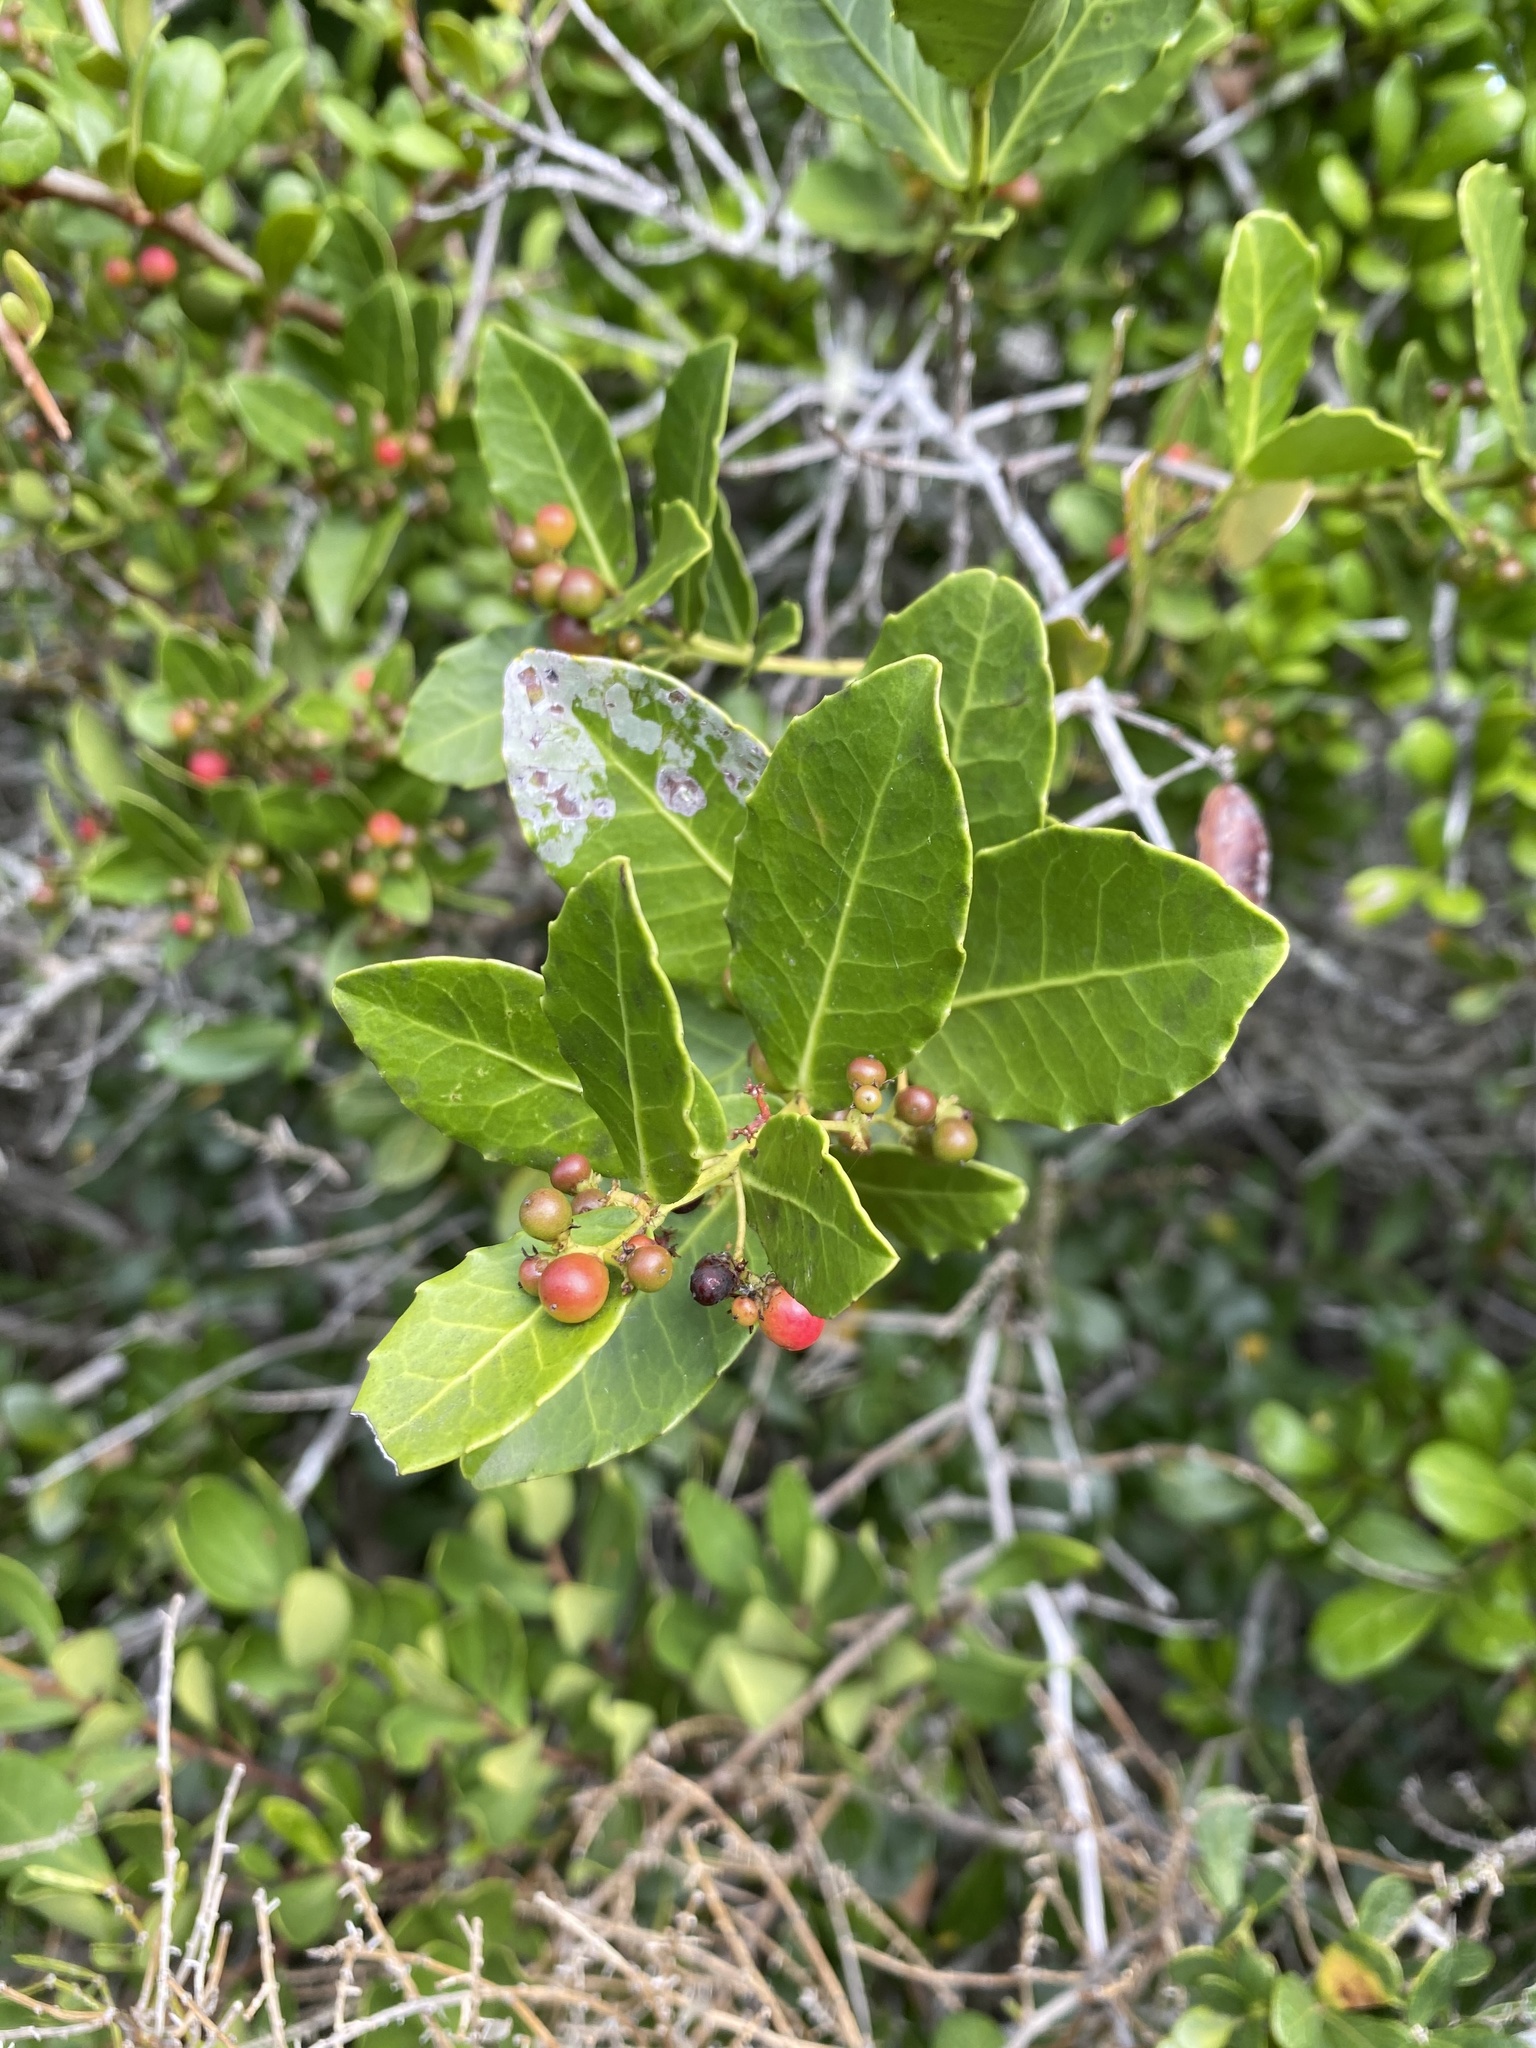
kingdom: Plantae
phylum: Tracheophyta
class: Magnoliopsida
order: Celastrales
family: Celastraceae
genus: Lauridia
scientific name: Lauridia tetragona
